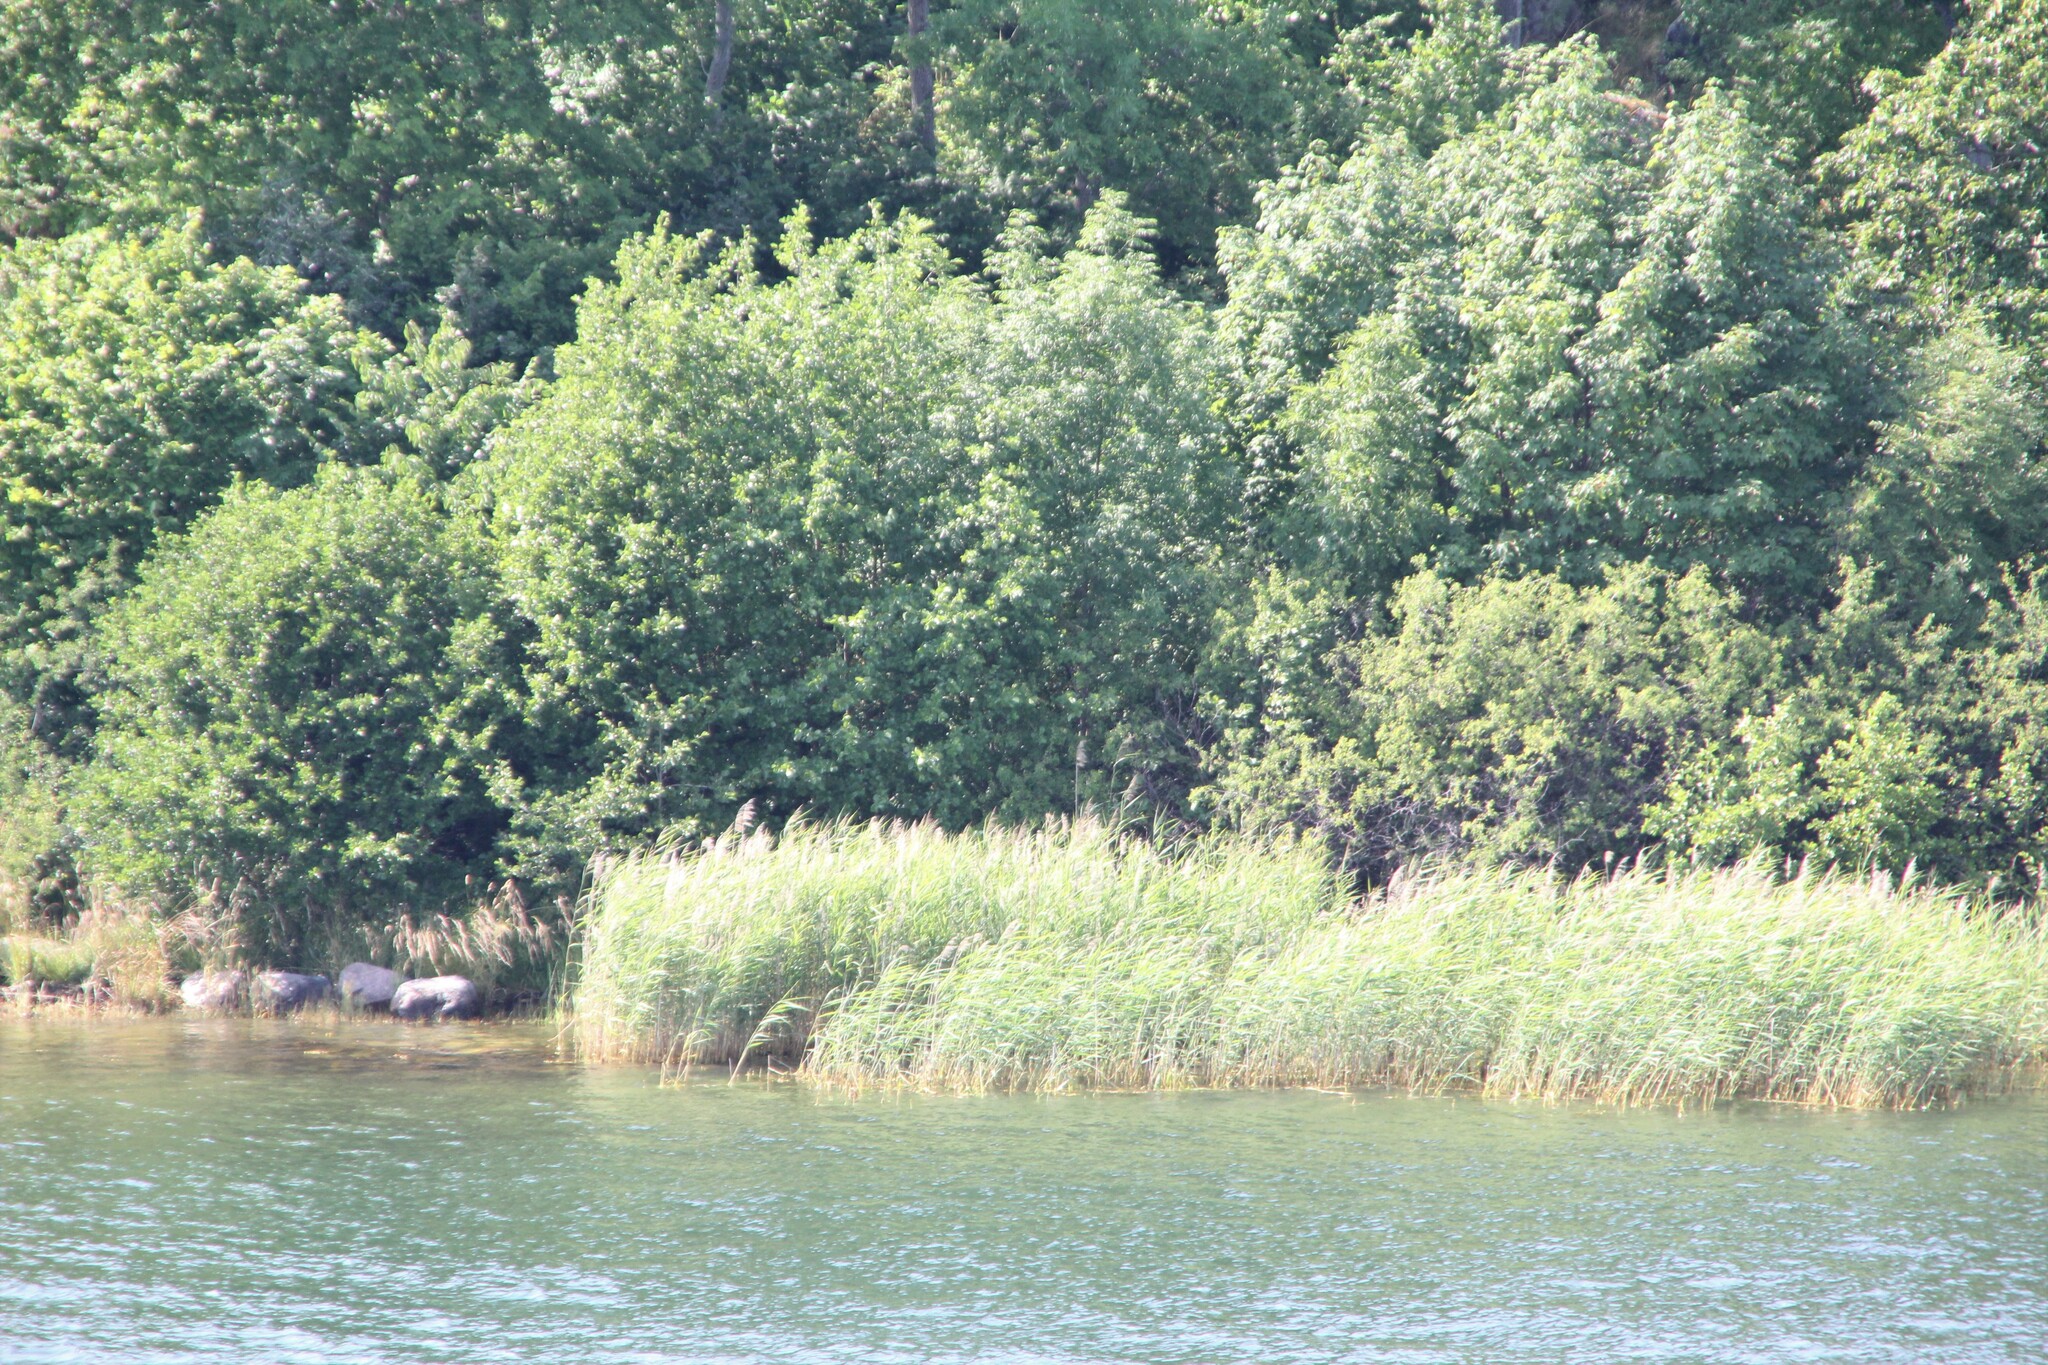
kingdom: Plantae
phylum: Tracheophyta
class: Liliopsida
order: Poales
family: Poaceae
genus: Phragmites
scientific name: Phragmites australis
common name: Common reed
